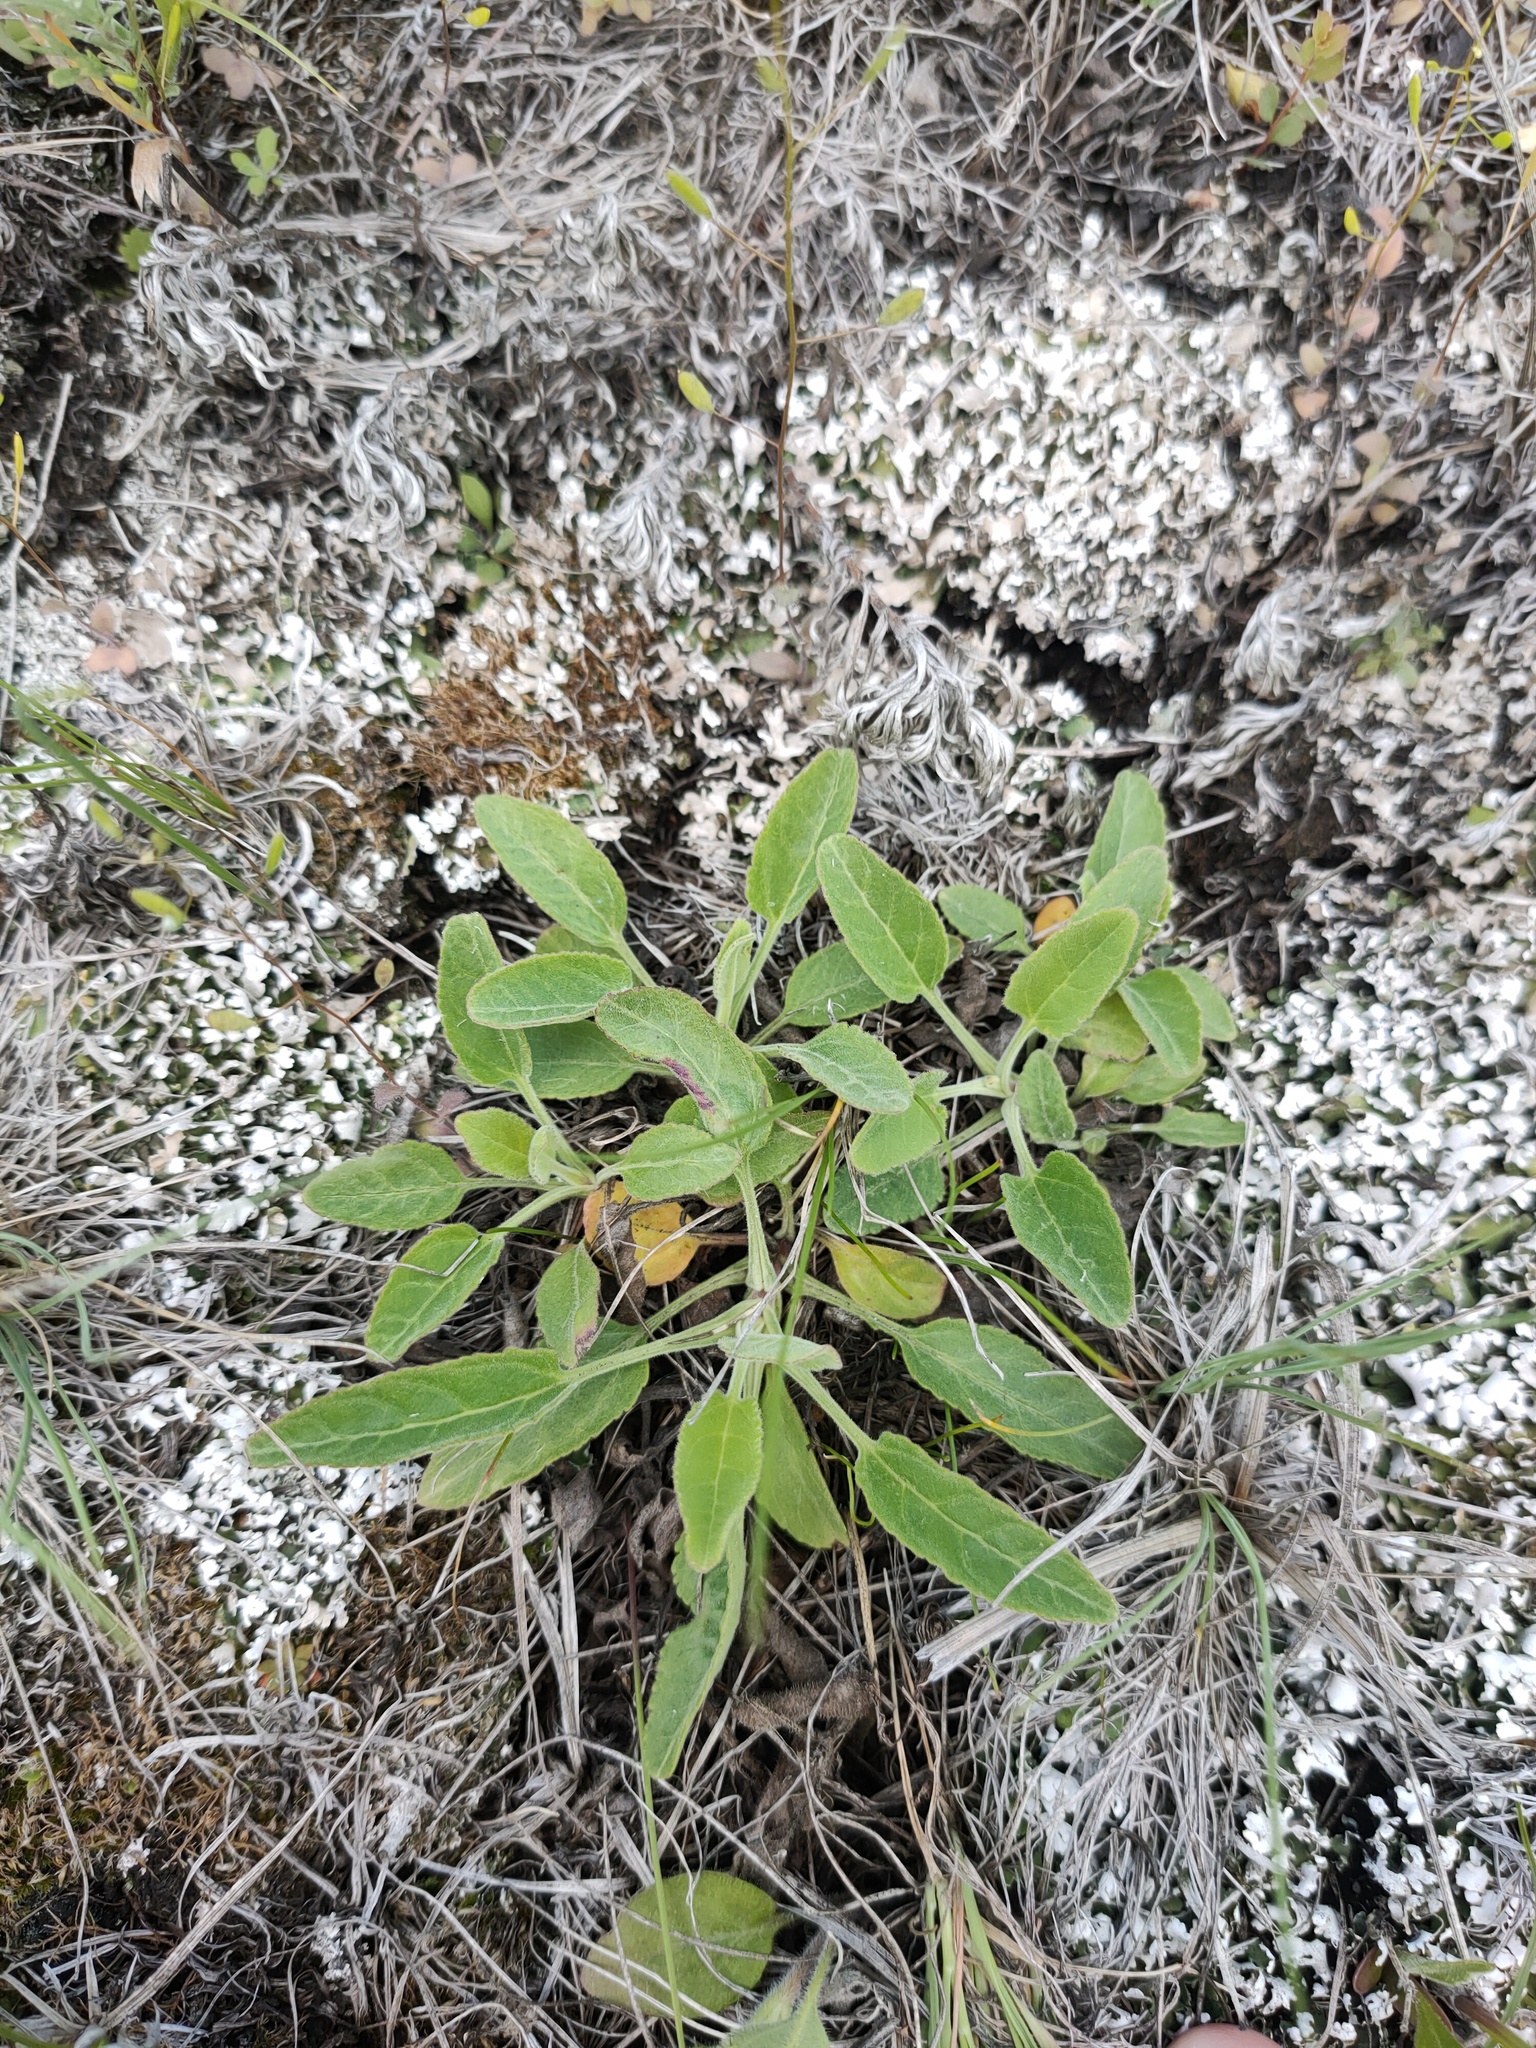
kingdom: Plantae
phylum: Tracheophyta
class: Magnoliopsida
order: Lamiales
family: Plantaginaceae
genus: Veronica
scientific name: Veronica spicata
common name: Spiked speedwell
